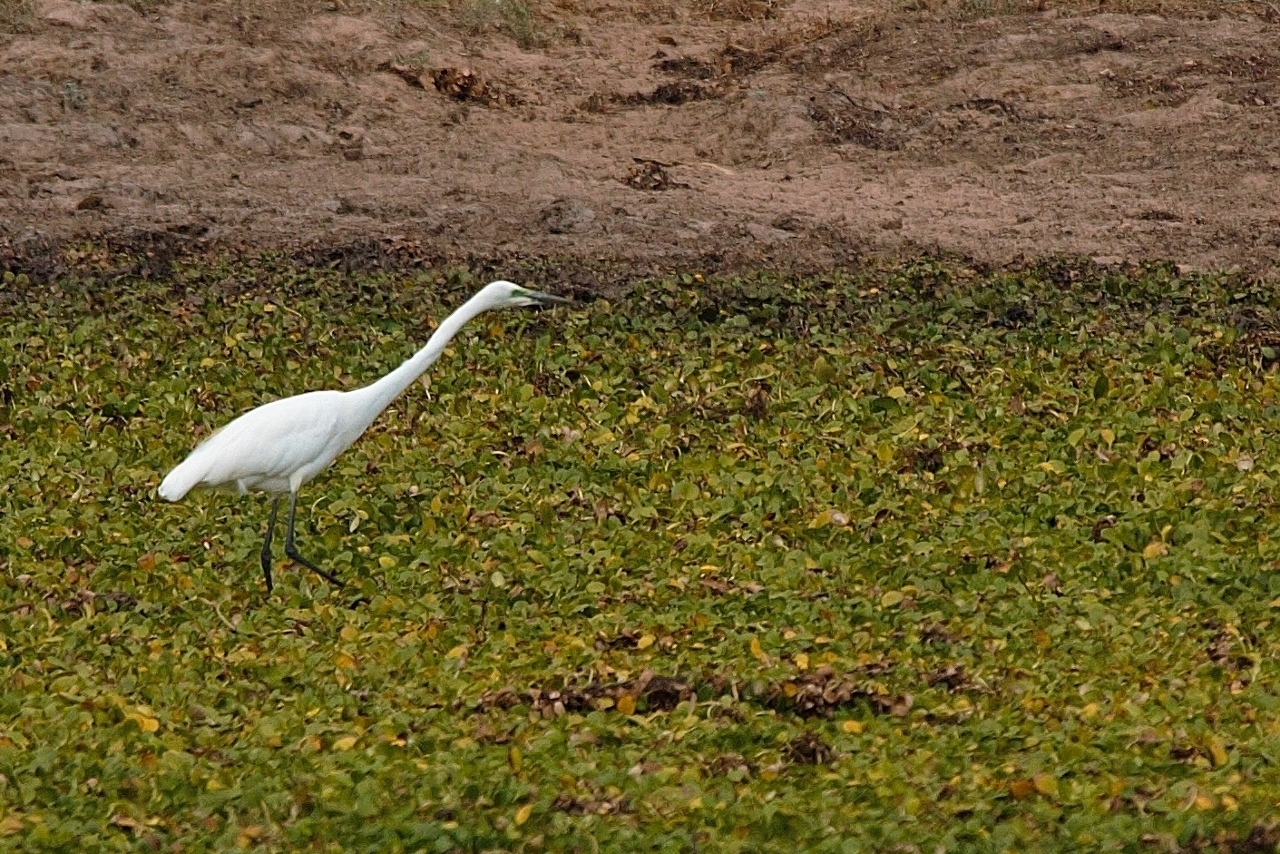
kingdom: Animalia
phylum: Chordata
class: Aves
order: Pelecaniformes
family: Ardeidae
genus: Ardea
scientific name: Ardea alba
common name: Great egret
